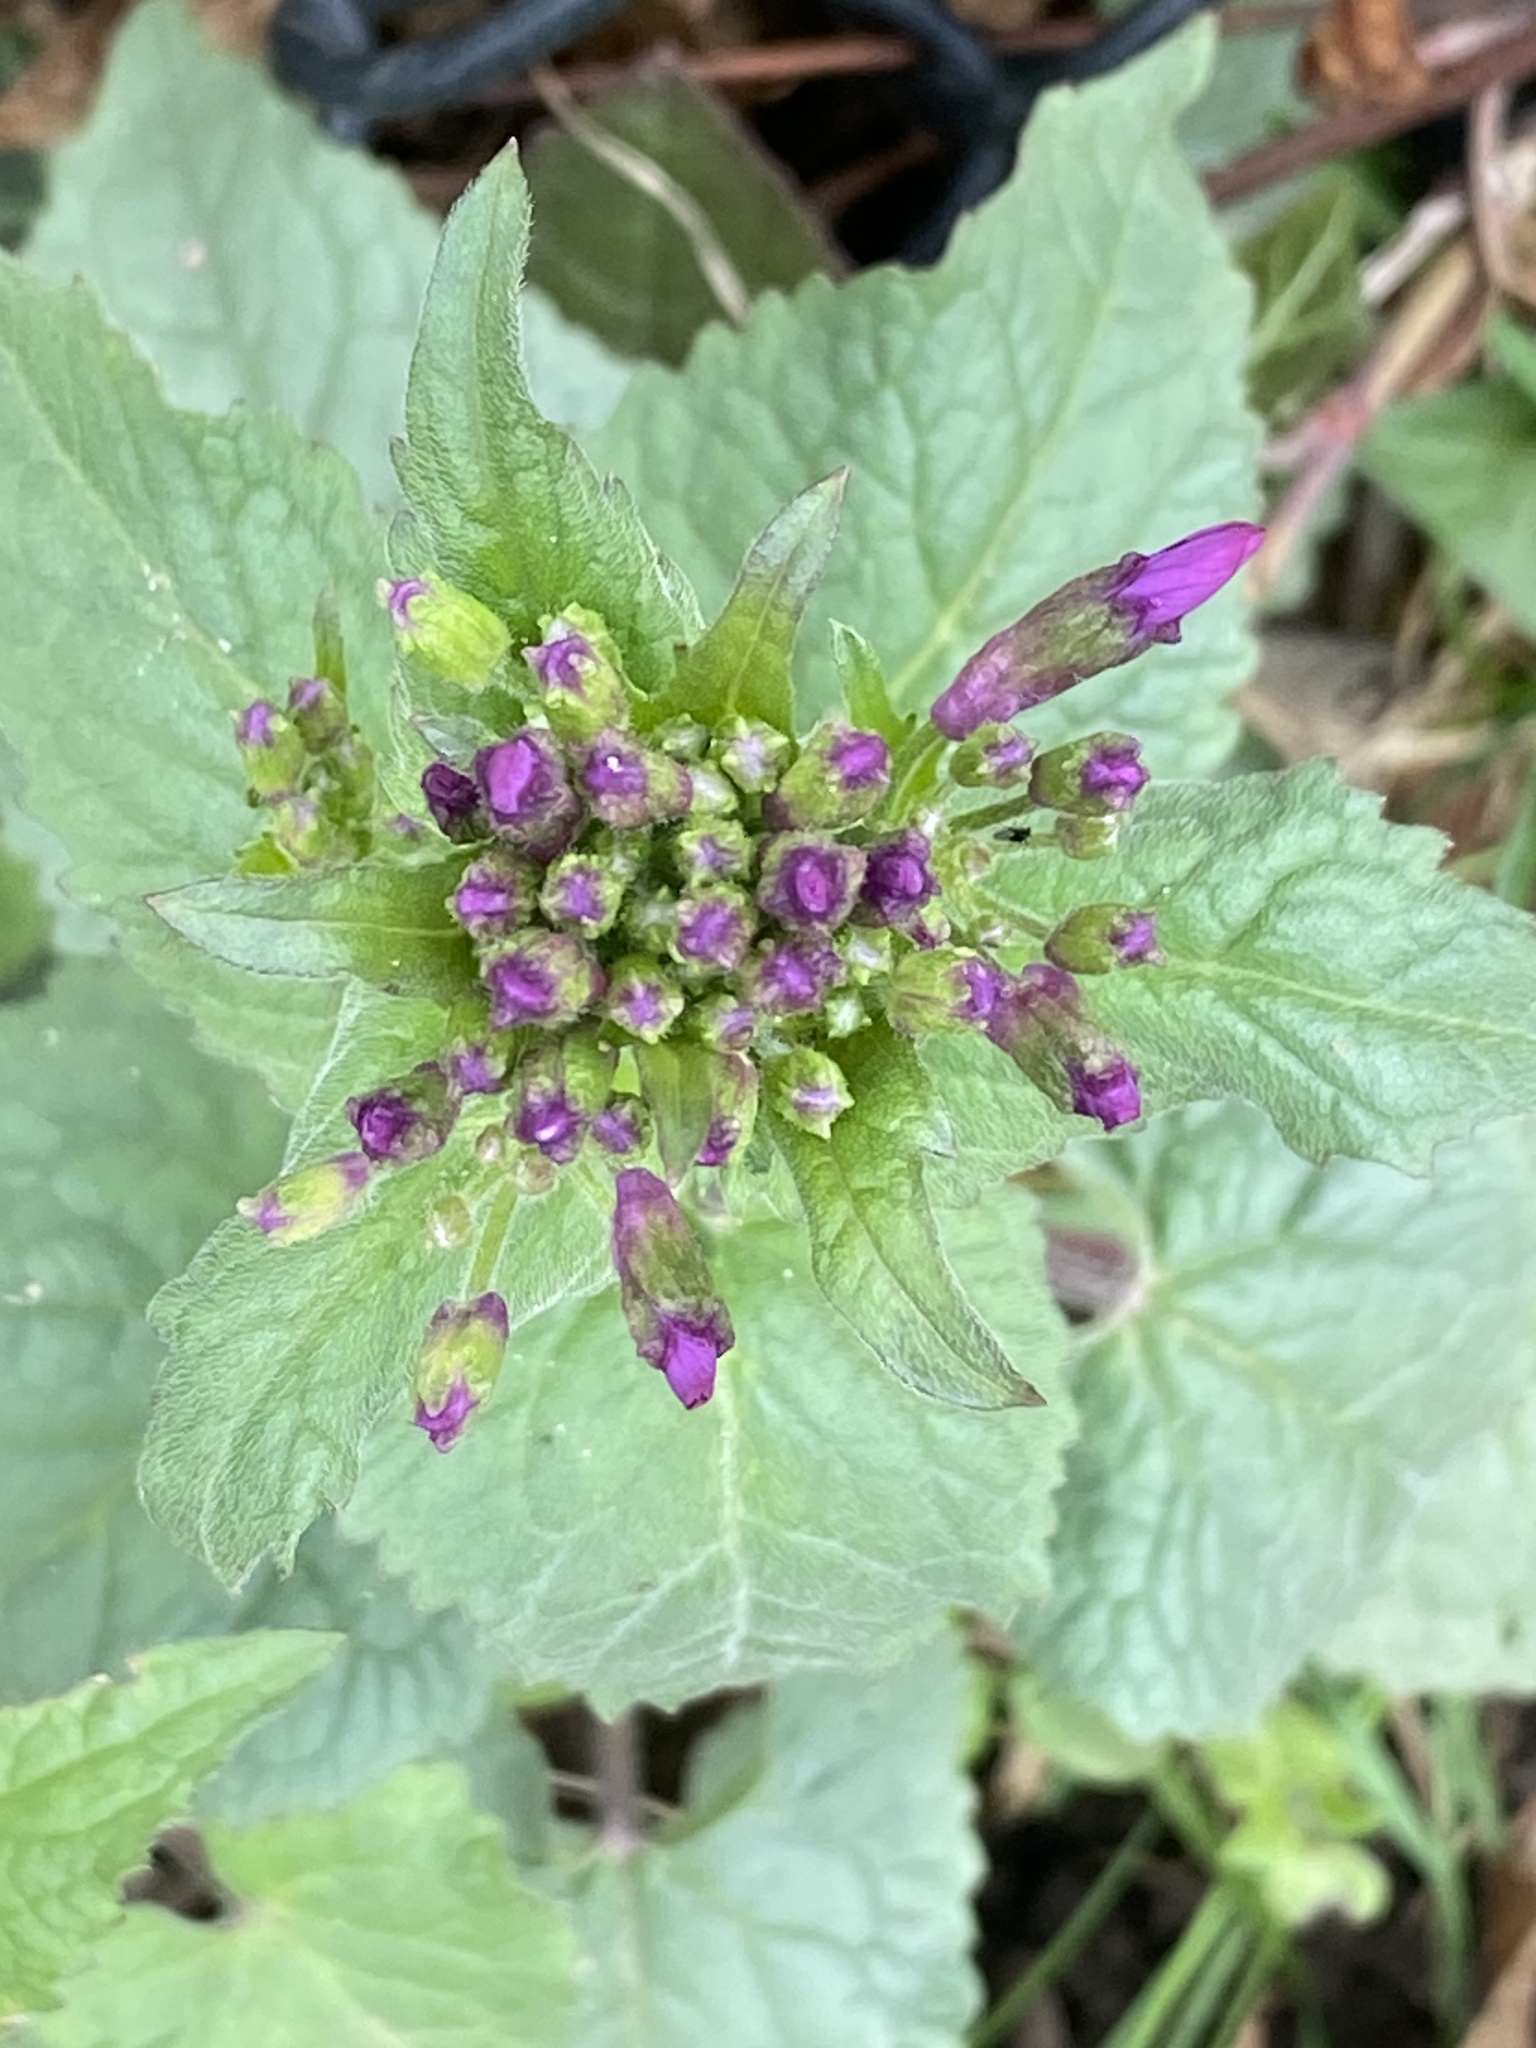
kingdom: Plantae
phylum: Tracheophyta
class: Magnoliopsida
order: Brassicales
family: Brassicaceae
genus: Lunaria
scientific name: Lunaria annua
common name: Honesty
